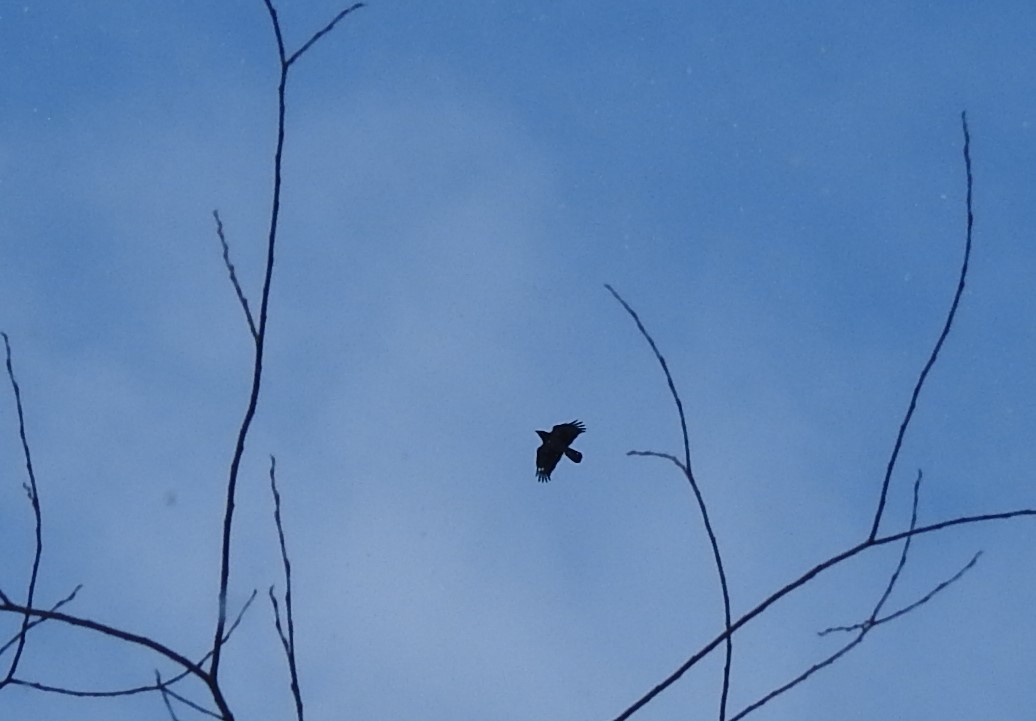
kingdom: Animalia
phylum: Chordata
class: Aves
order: Passeriformes
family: Corvidae
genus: Corvus
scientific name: Corvus corax
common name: Common raven
